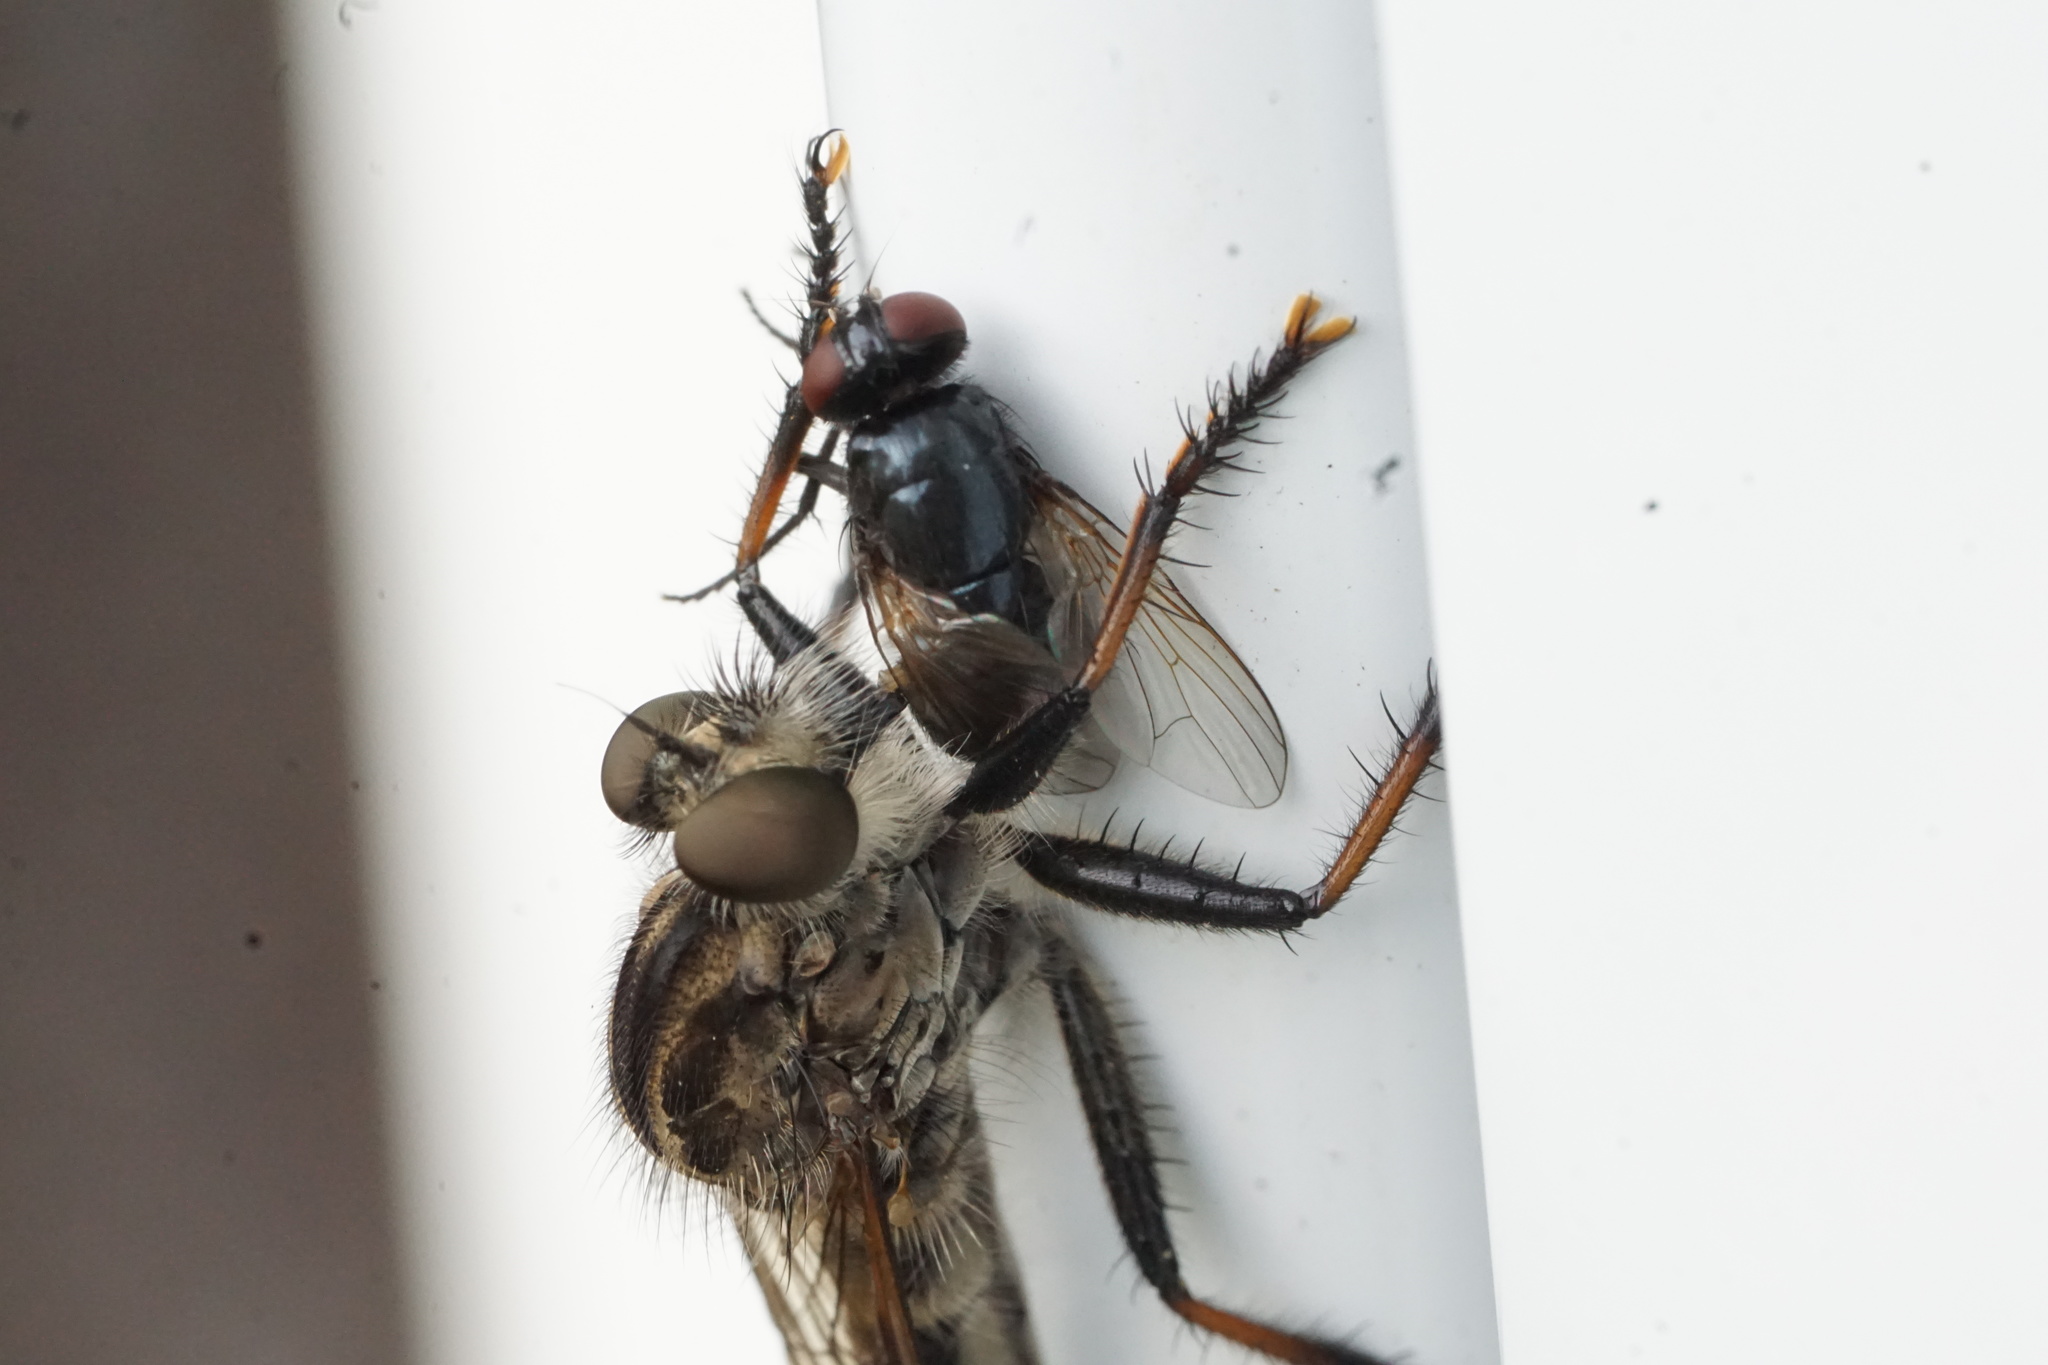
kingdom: Animalia
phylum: Arthropoda
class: Insecta
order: Diptera
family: Asilidae
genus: Efferia
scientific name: Efferia aestuans
